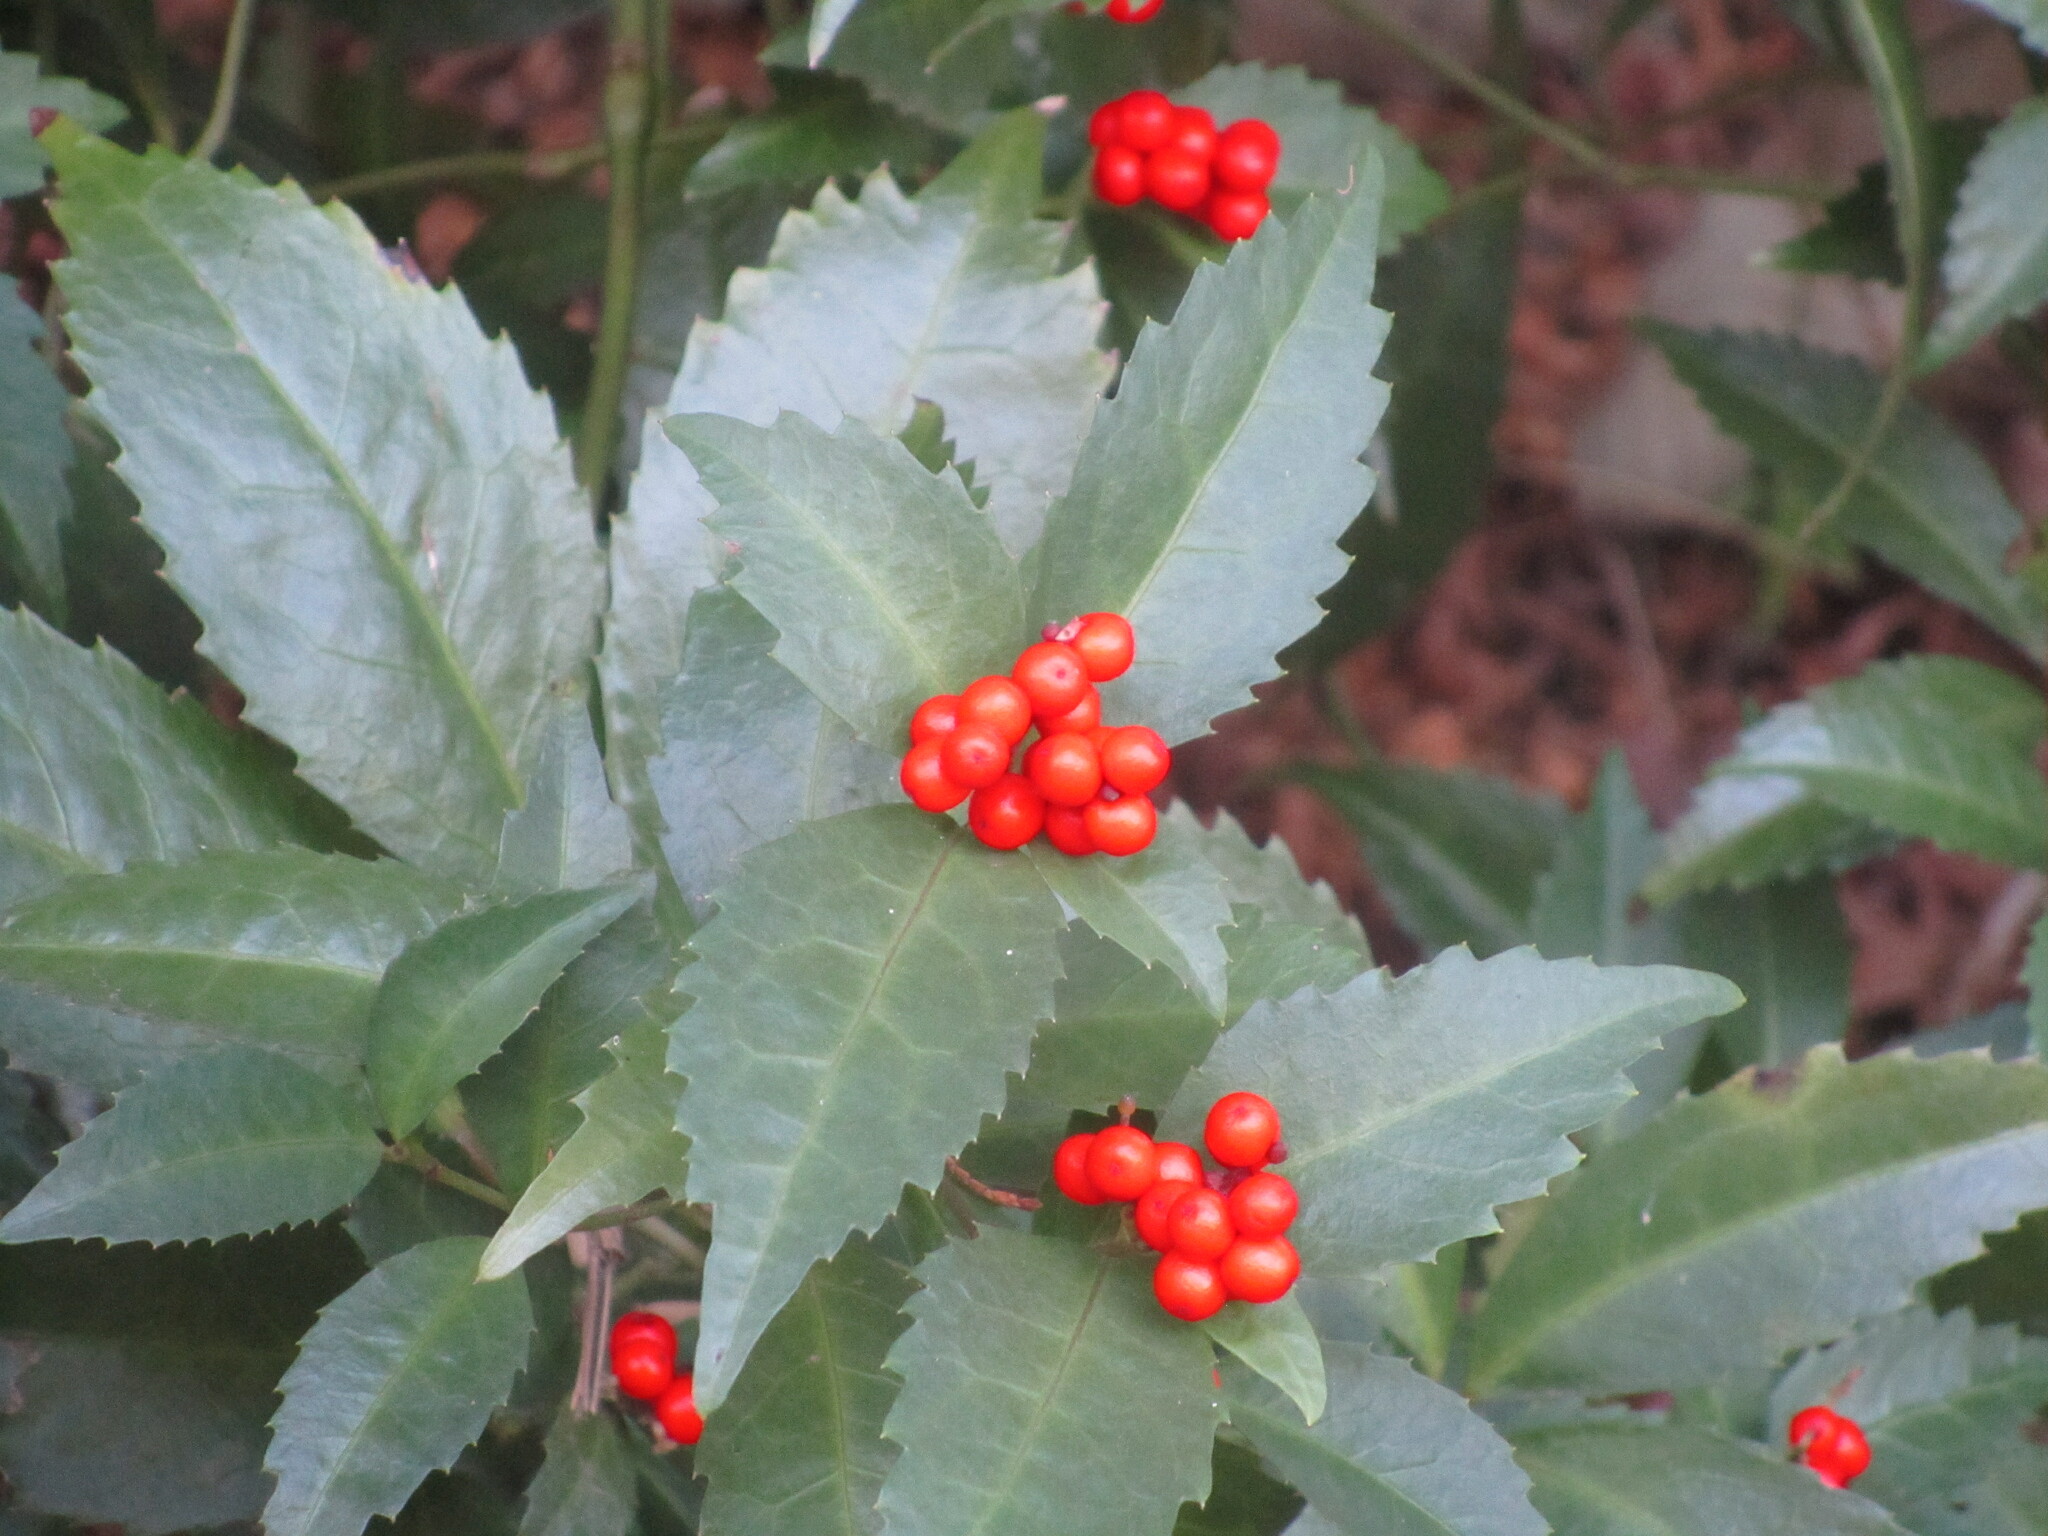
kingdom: Plantae
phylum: Tracheophyta
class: Magnoliopsida
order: Chloranthales
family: Chloranthaceae
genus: Sarcandra
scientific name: Sarcandra glabra
